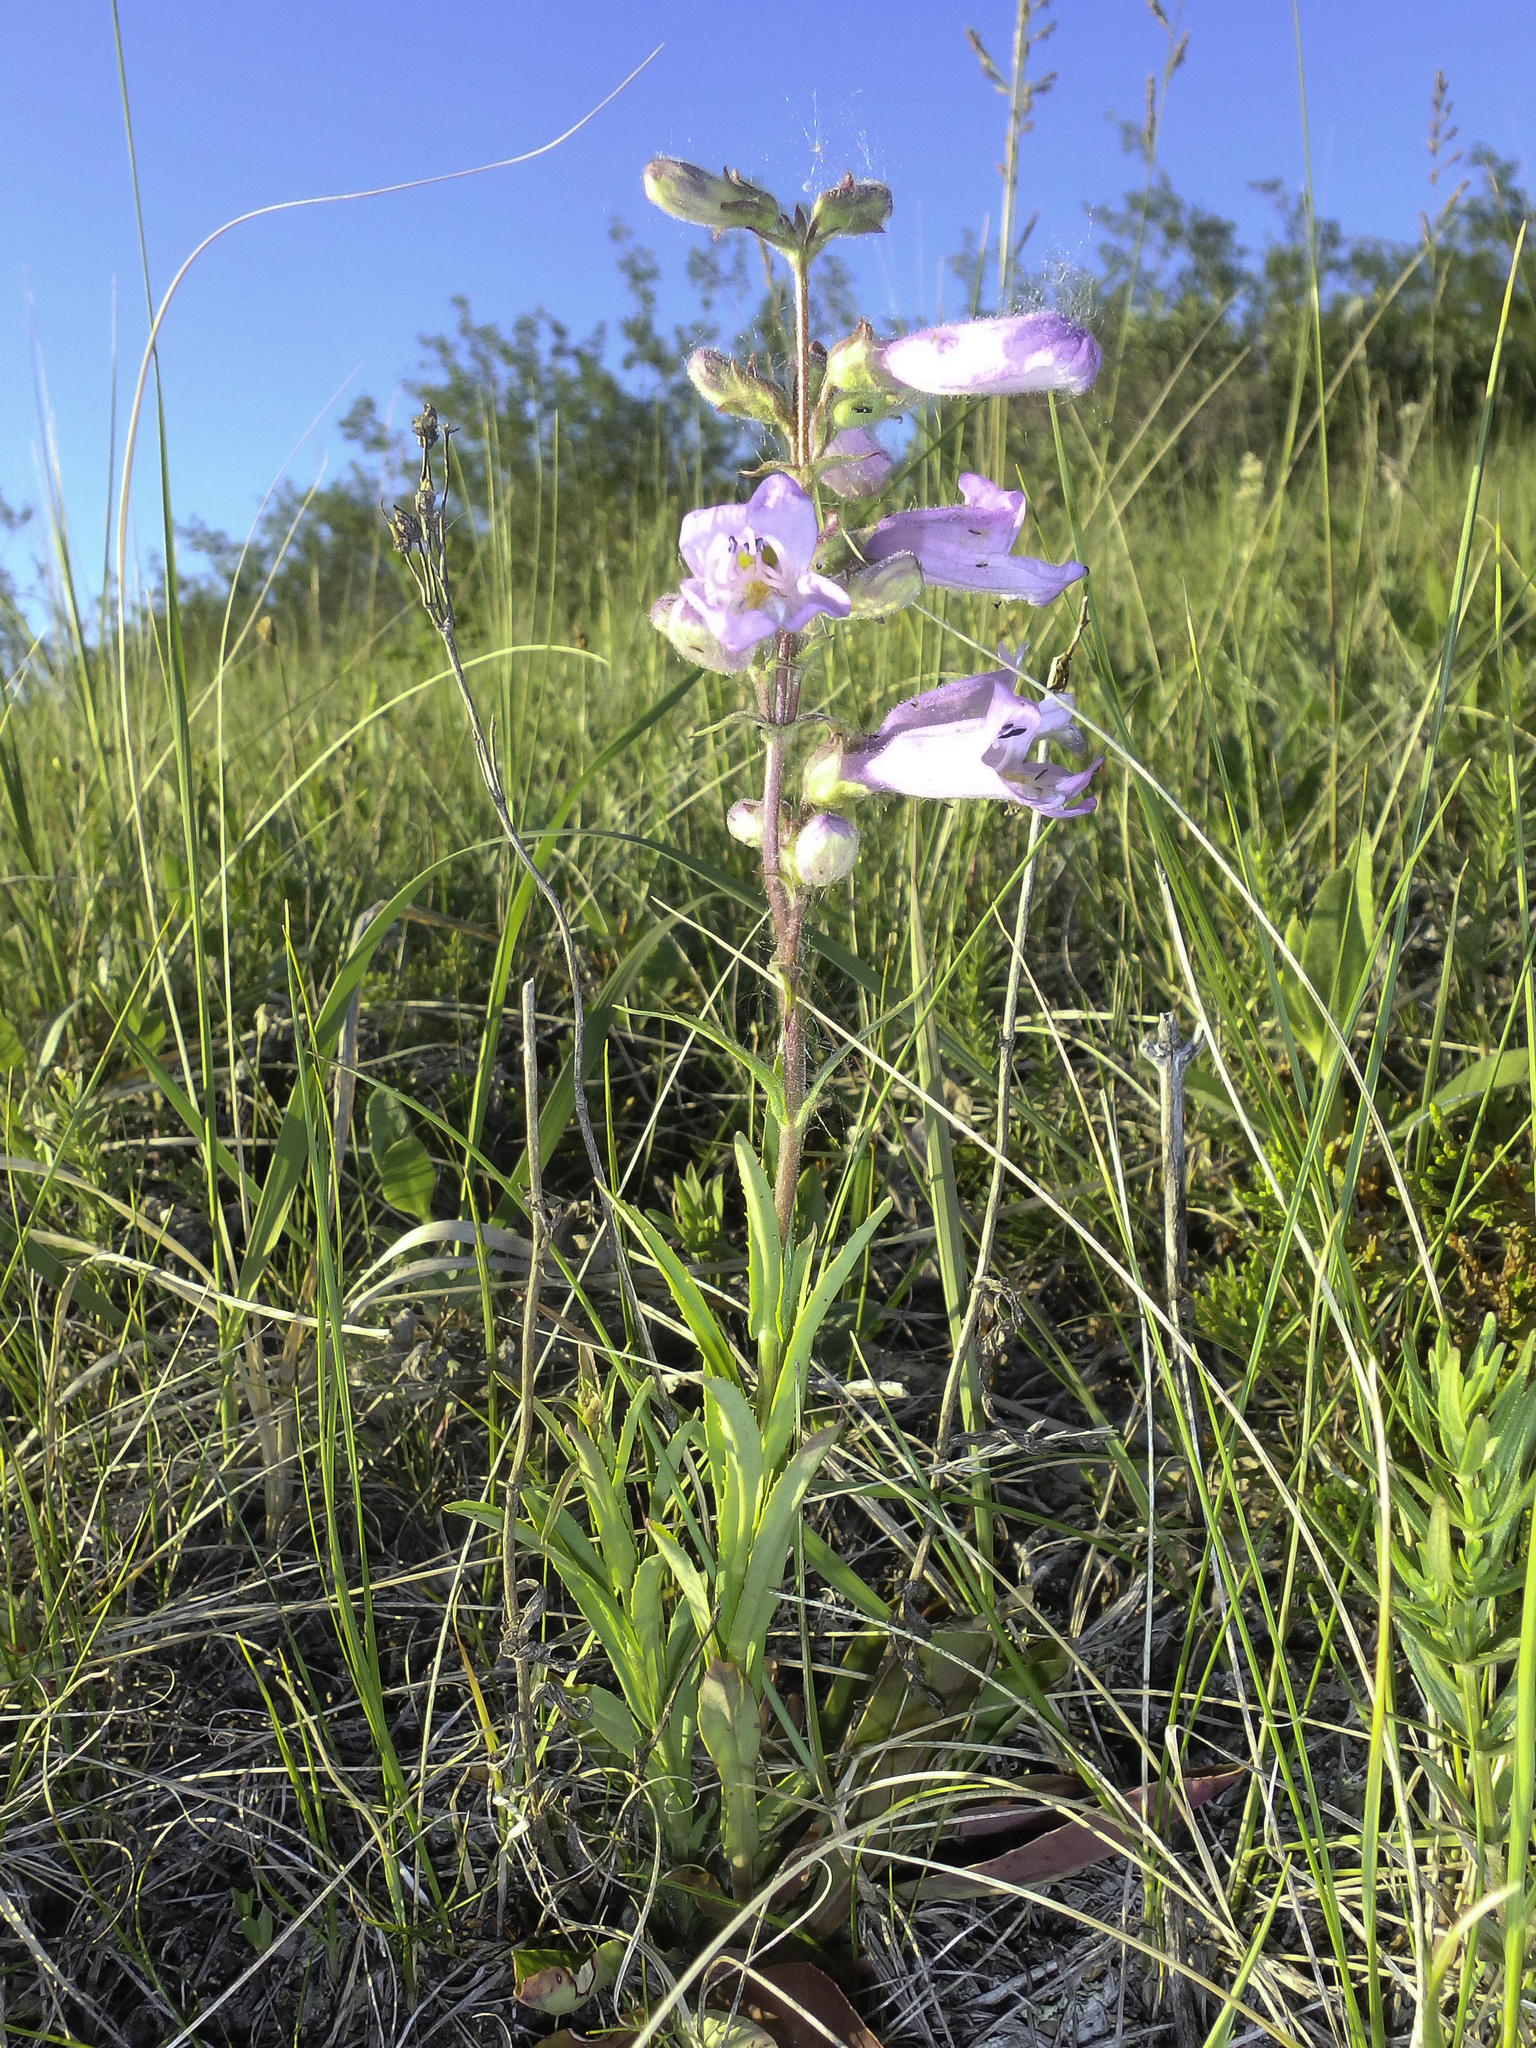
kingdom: Plantae
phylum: Tracheophyta
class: Magnoliopsida
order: Lamiales
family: Plantaginaceae
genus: Penstemon
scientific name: Penstemon gracilis
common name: Slender beardtongue
